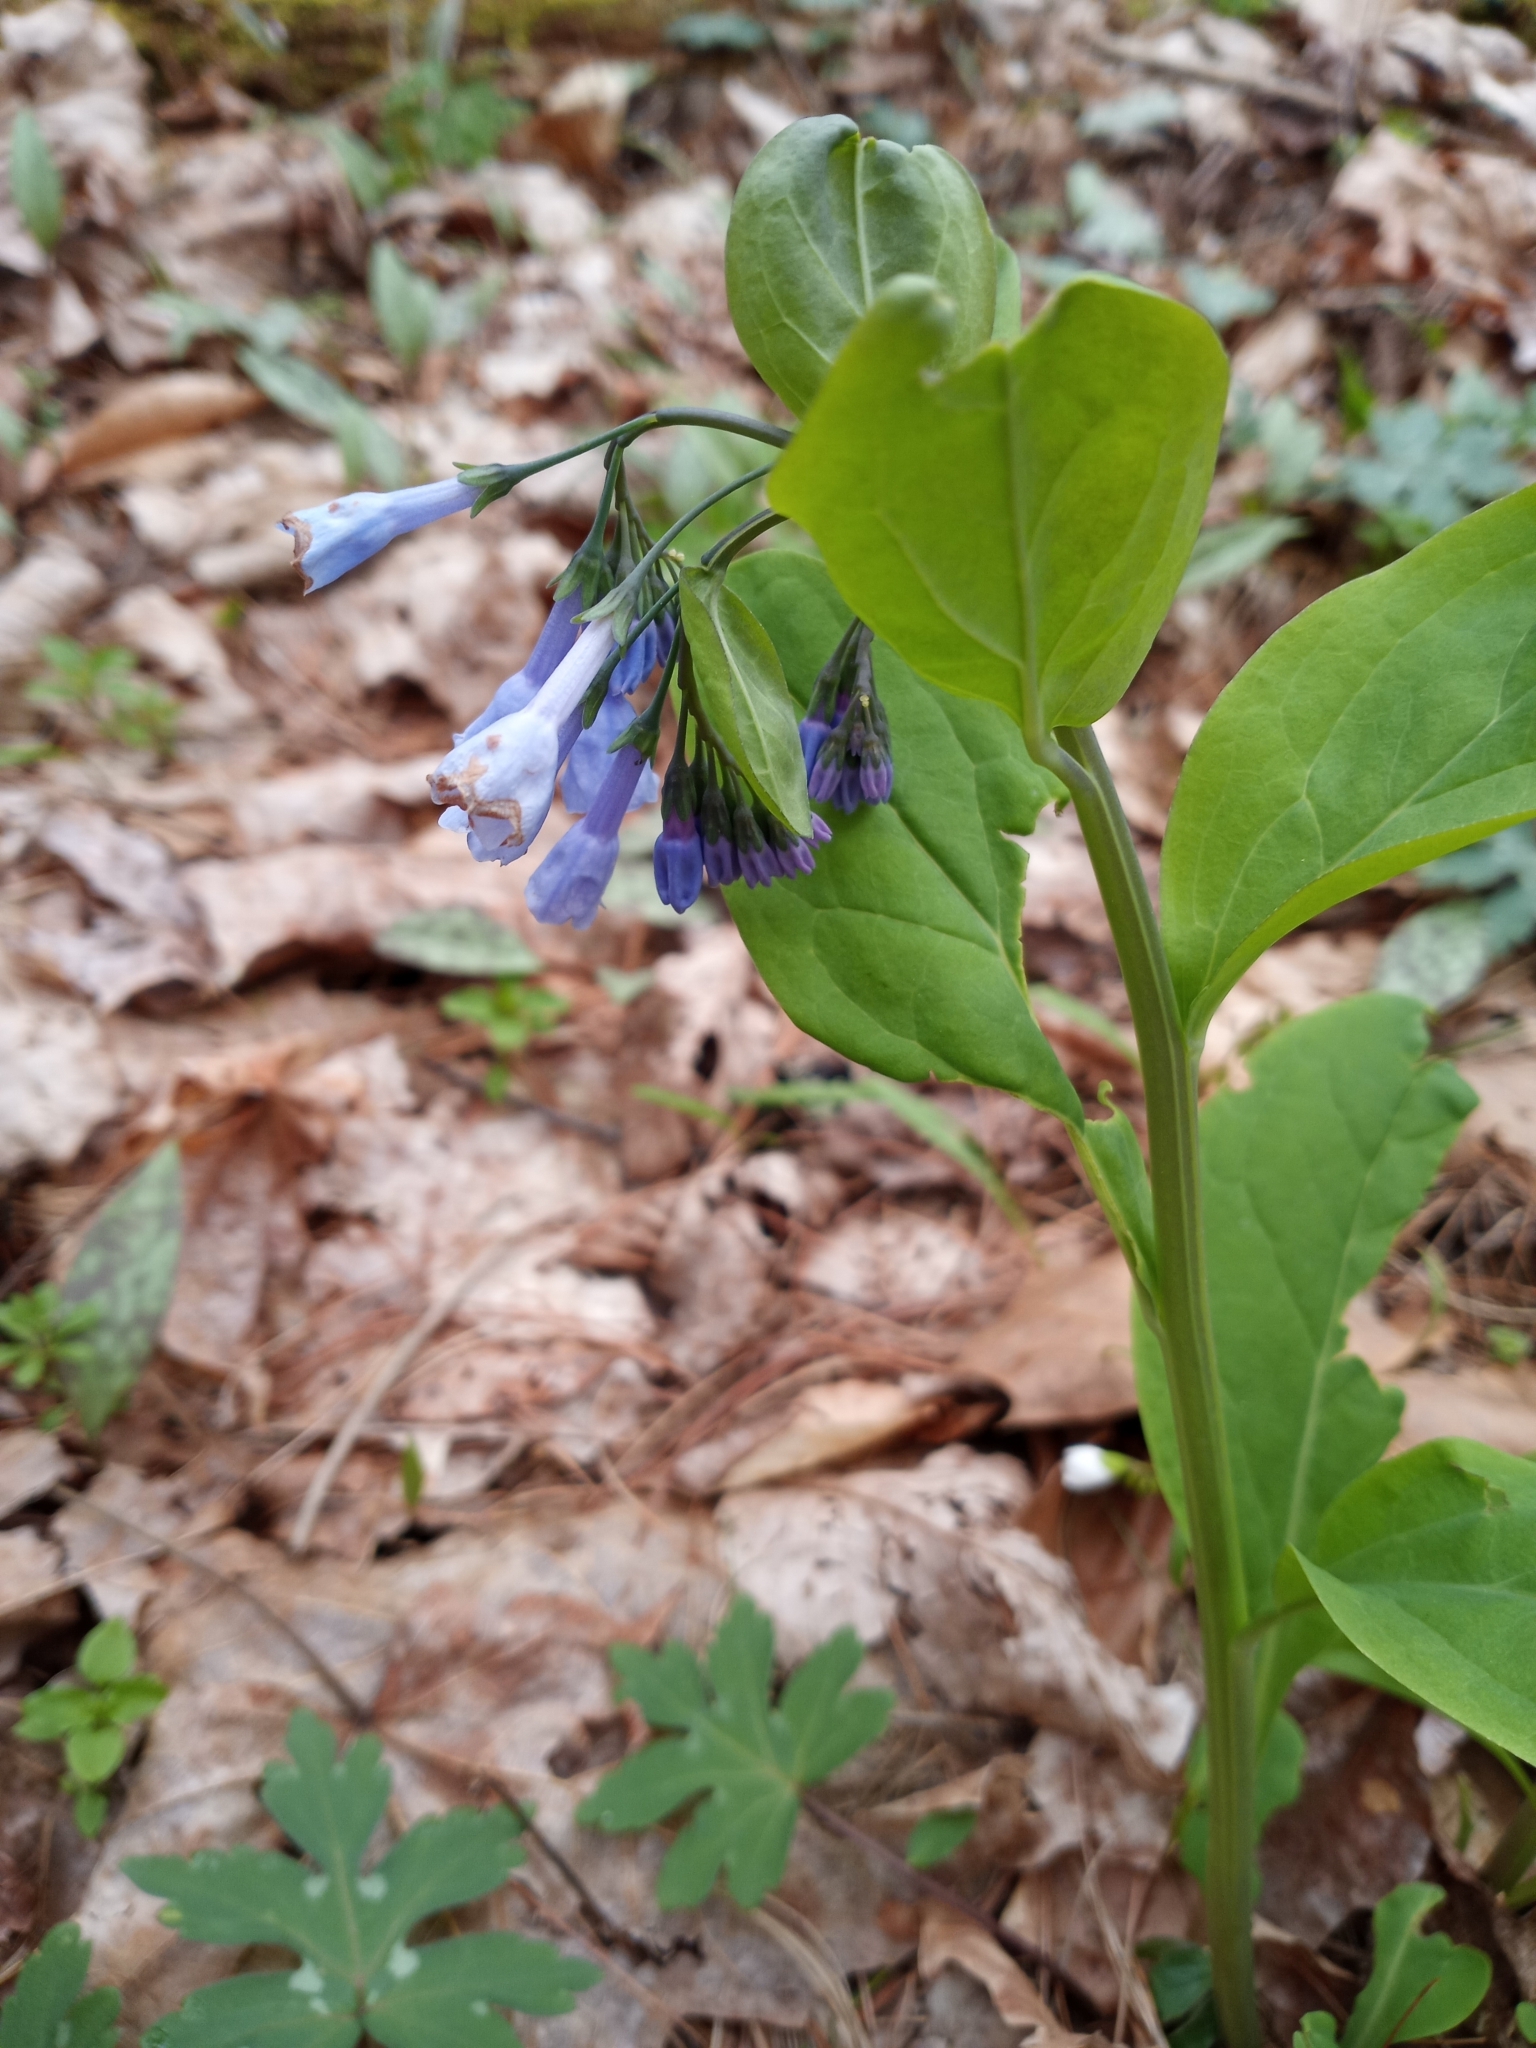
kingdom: Plantae
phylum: Tracheophyta
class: Magnoliopsida
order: Boraginales
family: Boraginaceae
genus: Mertensia
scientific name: Mertensia virginica
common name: Virginia bluebells
